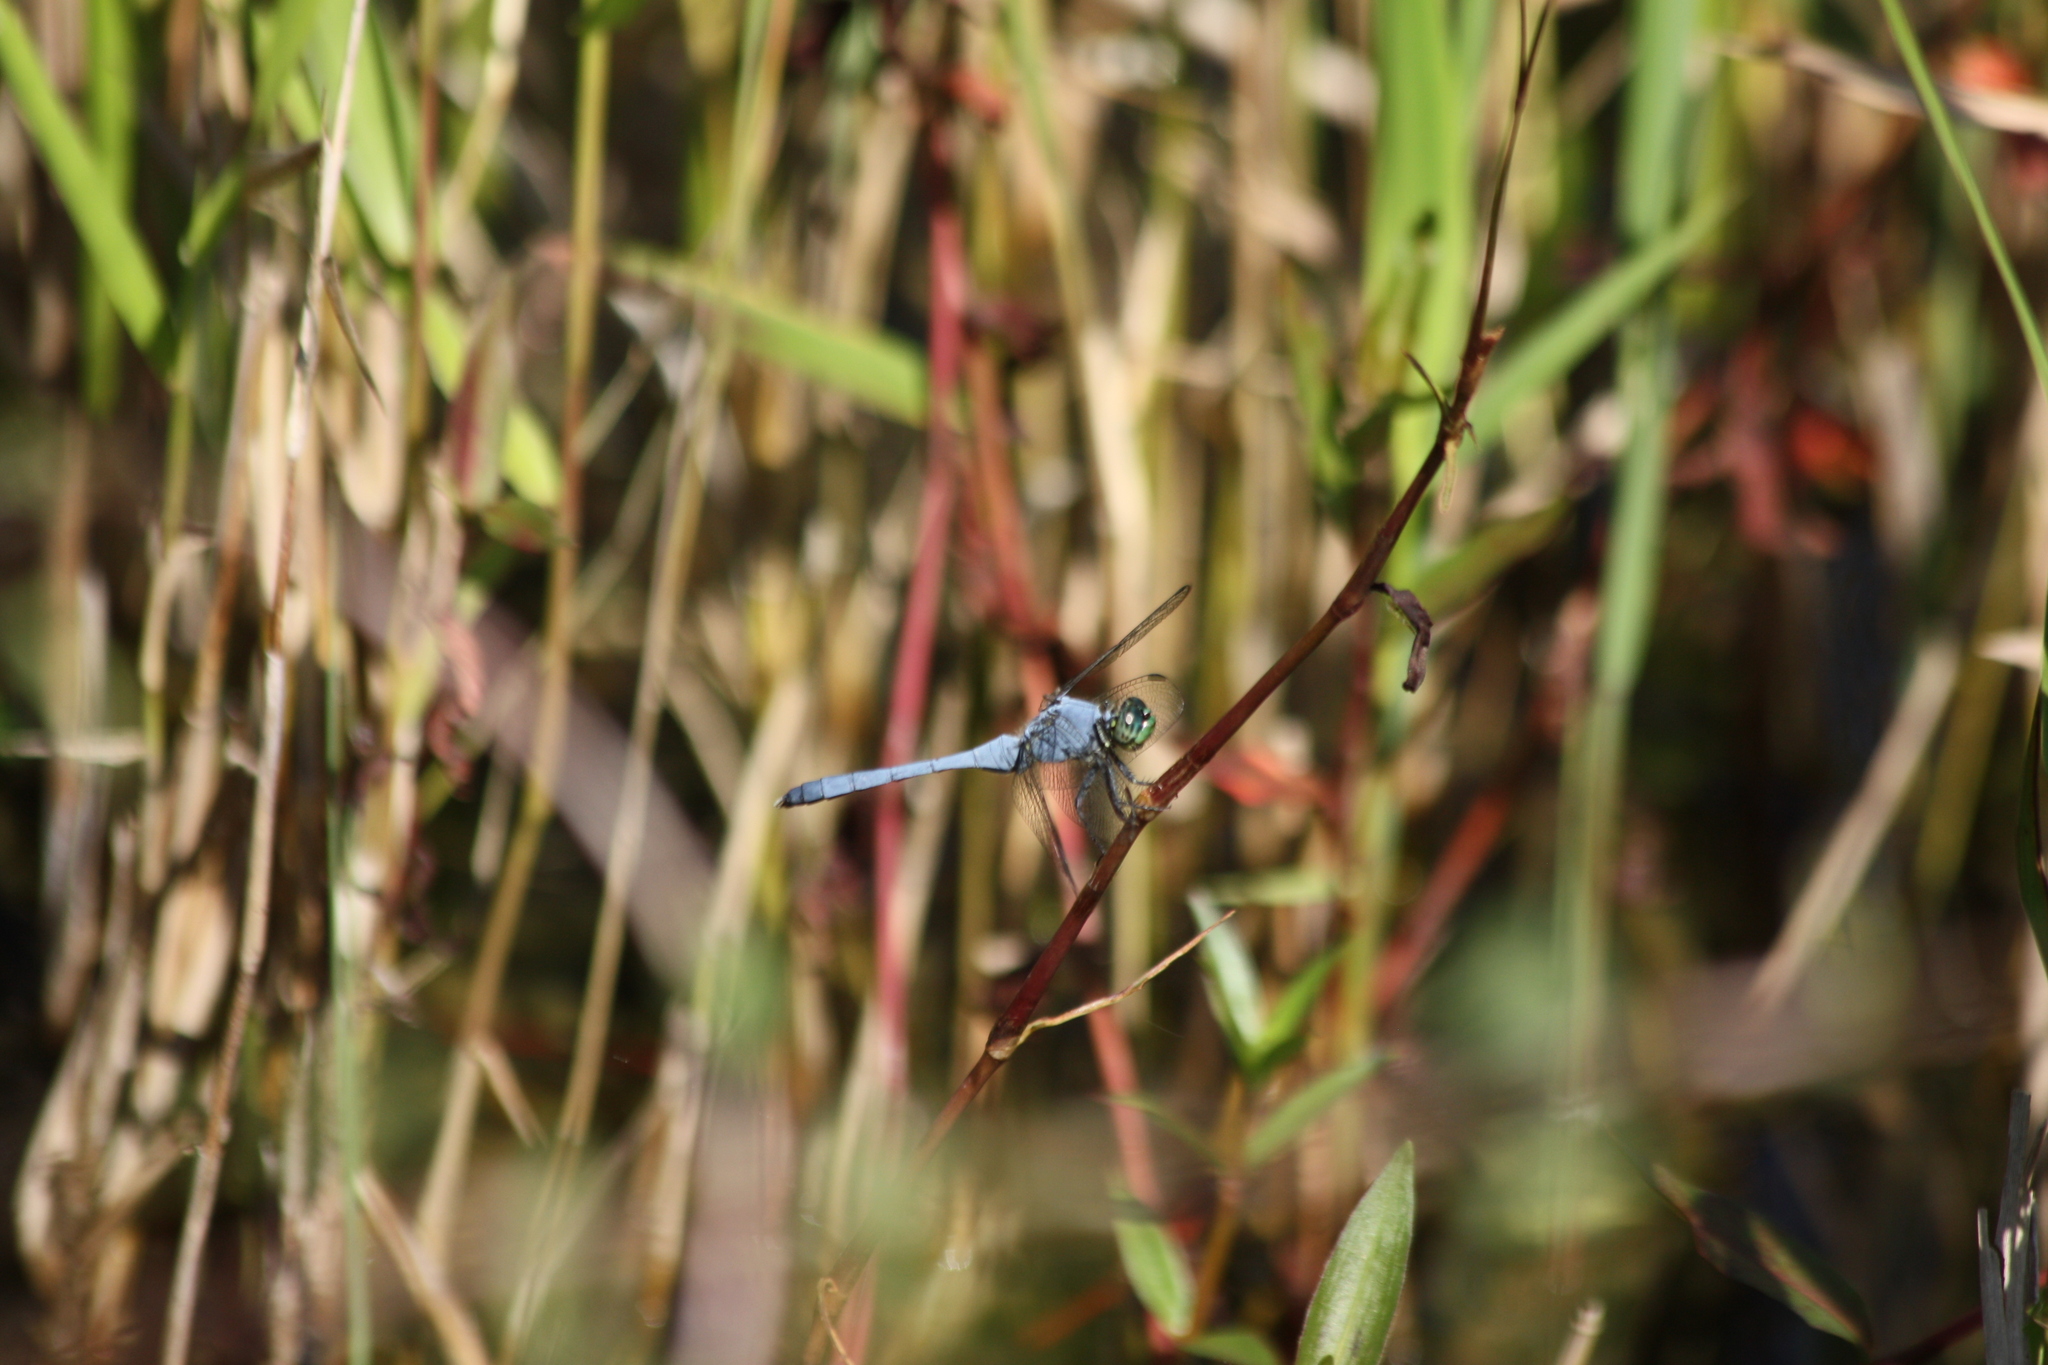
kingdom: Animalia
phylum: Arthropoda
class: Insecta
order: Odonata
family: Libellulidae
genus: Erythemis
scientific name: Erythemis simplicicollis
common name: Eastern pondhawk
